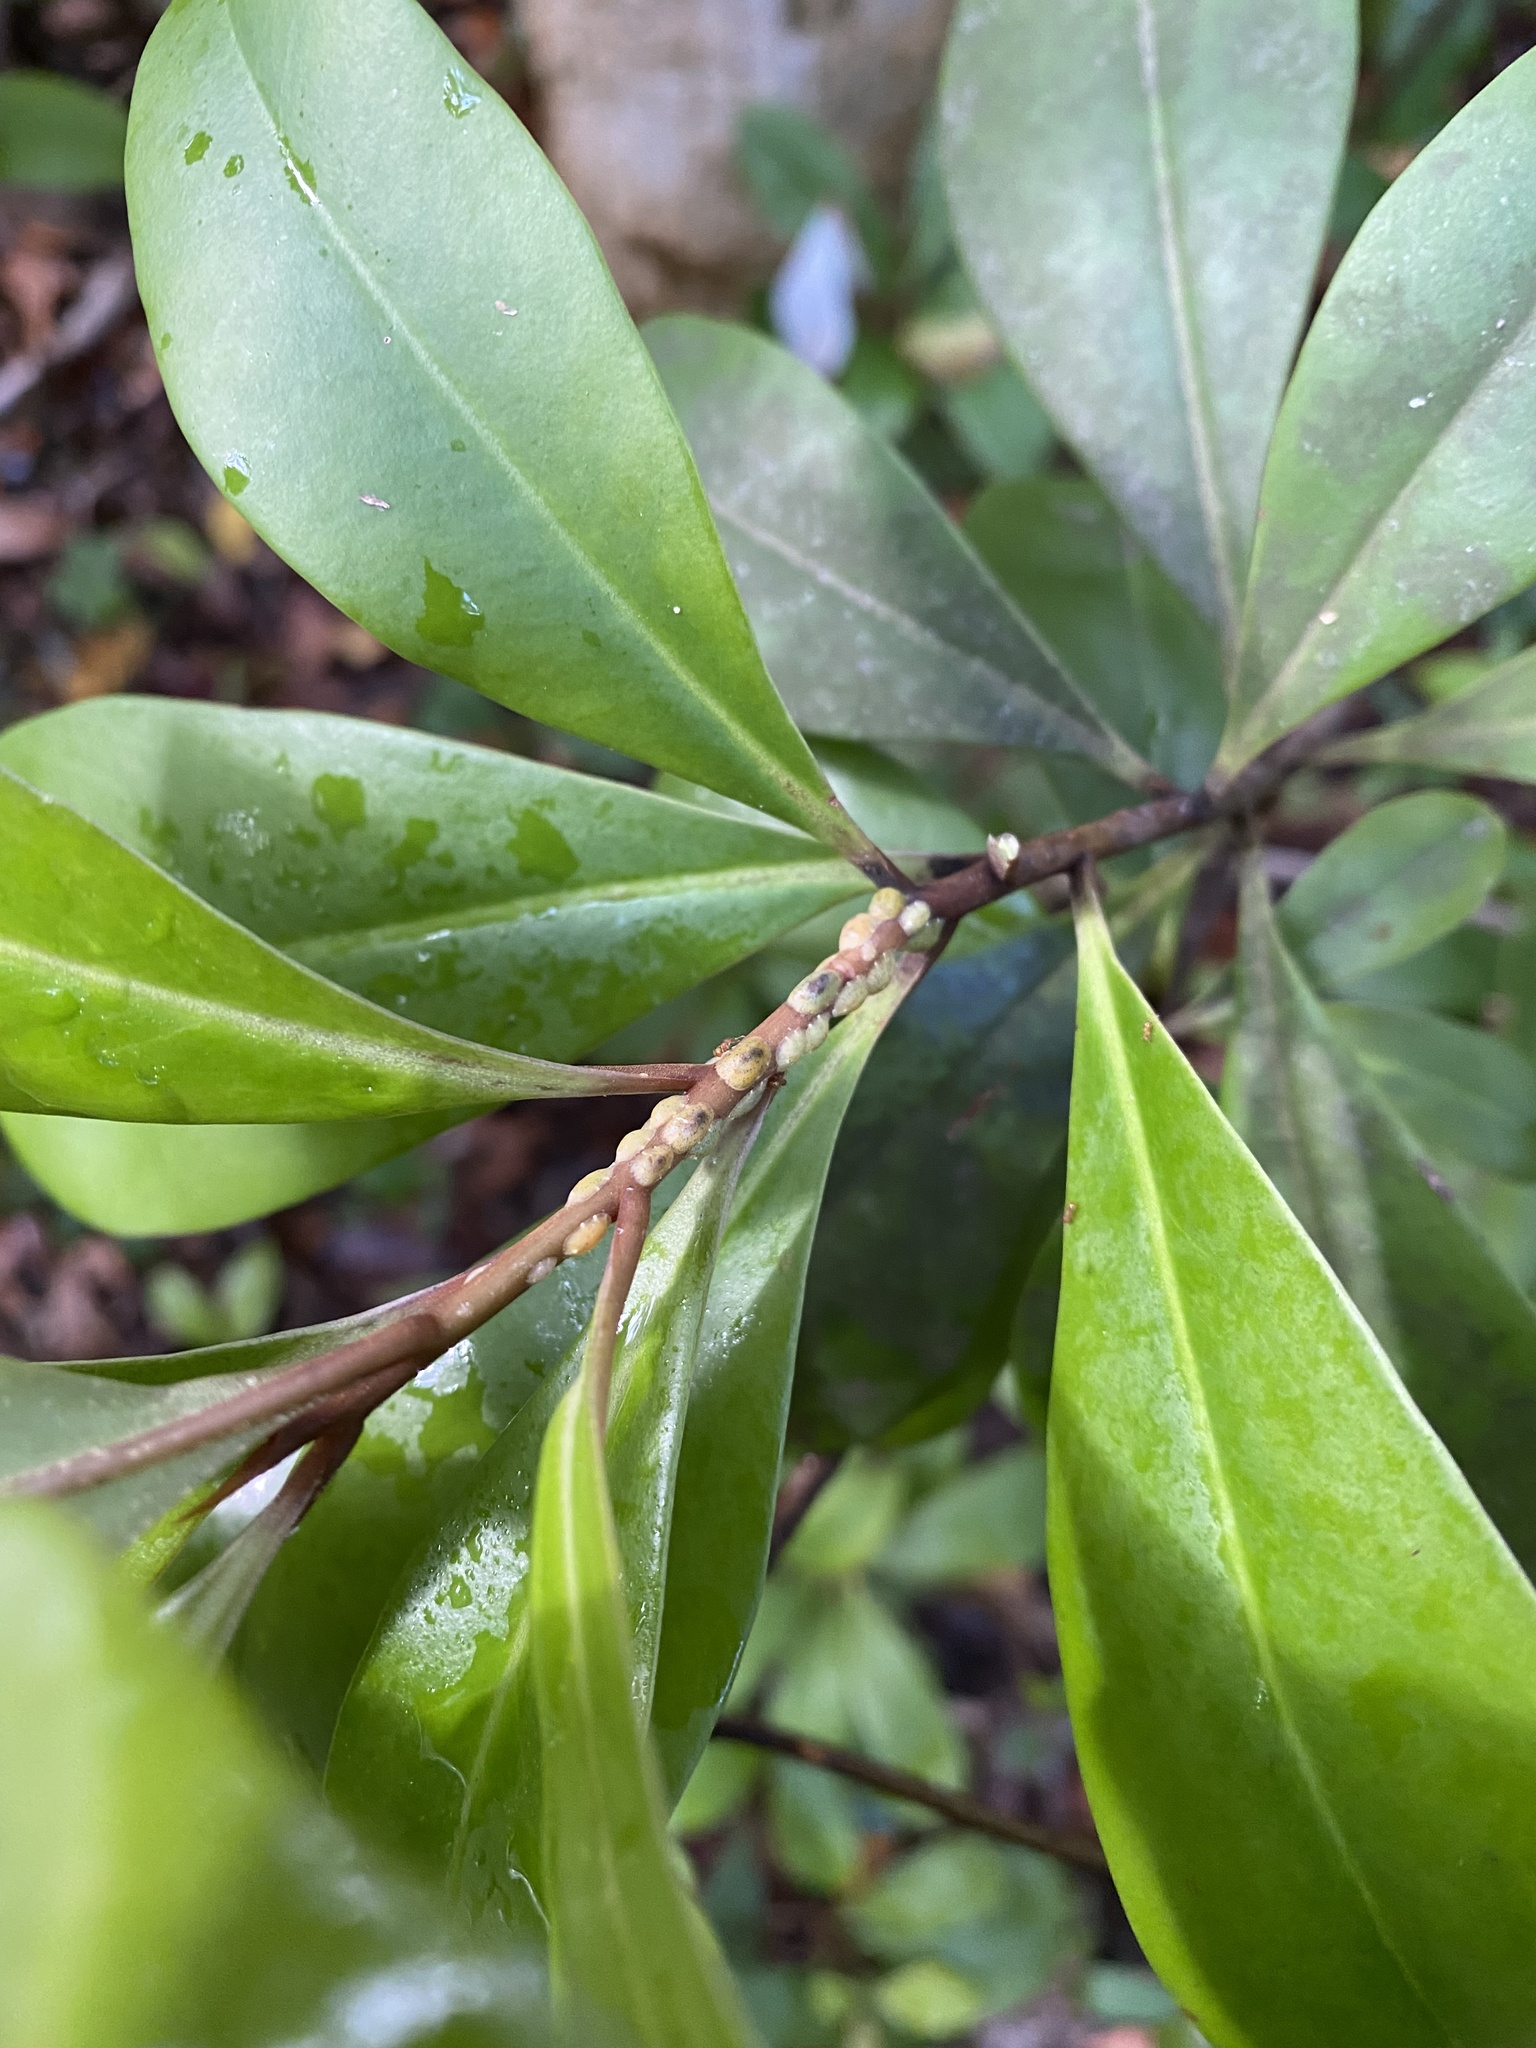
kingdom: Plantae
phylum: Tracheophyta
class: Magnoliopsida
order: Ericales
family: Primulaceae
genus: Myrsine
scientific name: Myrsine floridana
